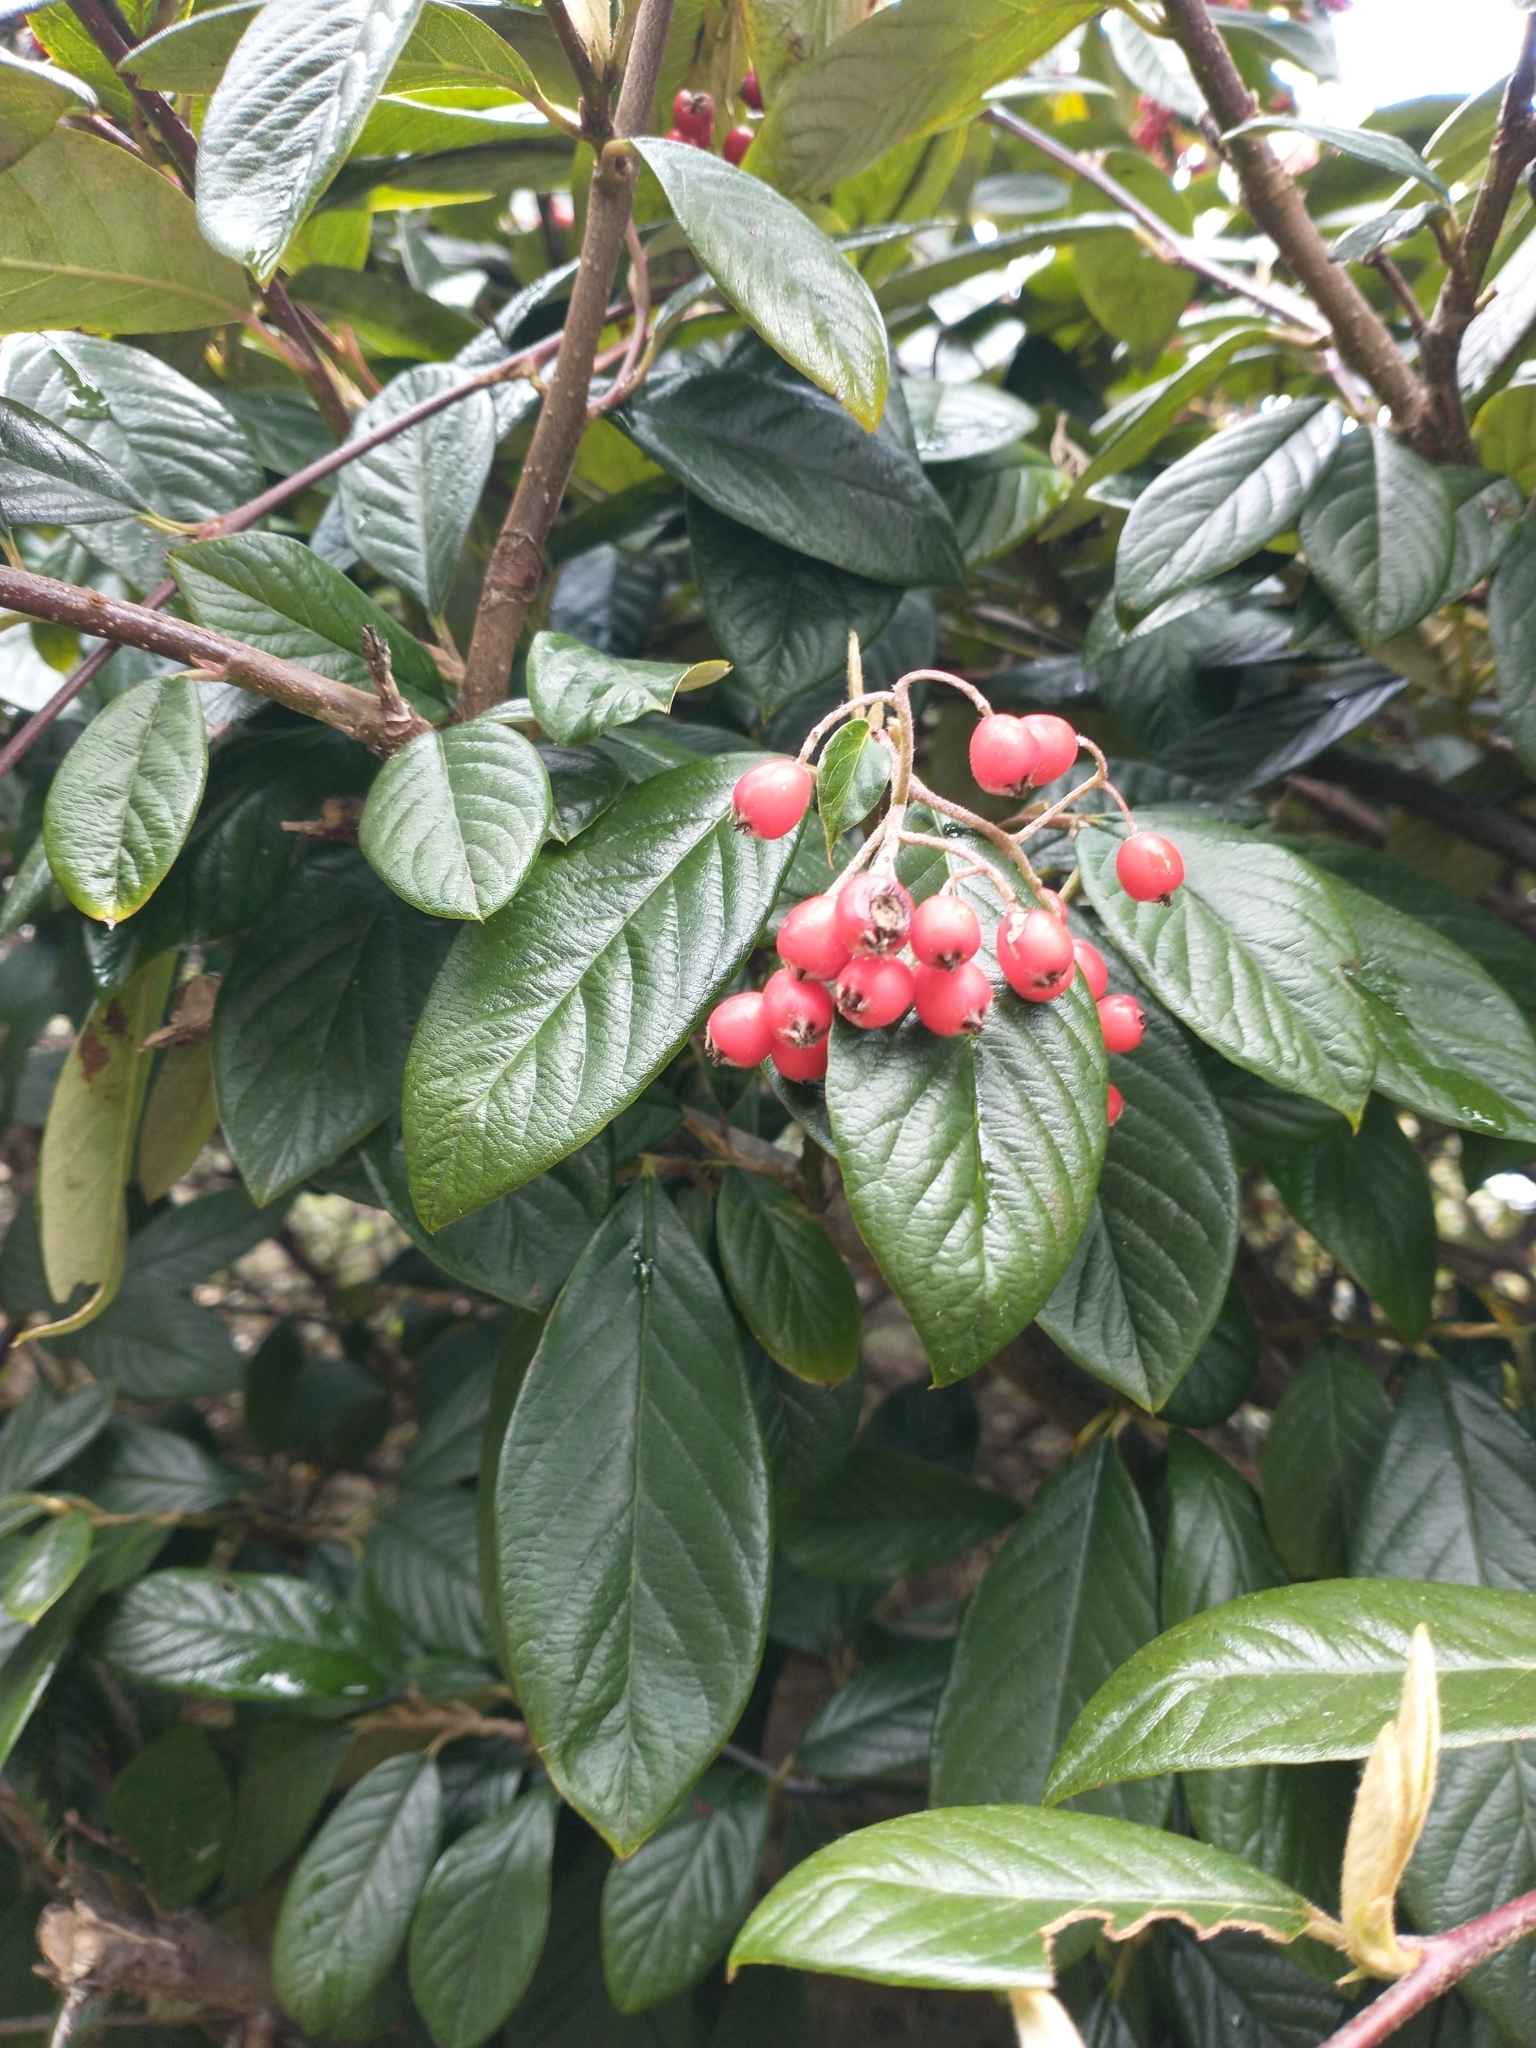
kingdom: Plantae
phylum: Tracheophyta
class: Magnoliopsida
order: Rosales
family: Rosaceae
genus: Cotoneaster
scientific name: Cotoneaster coriaceus
